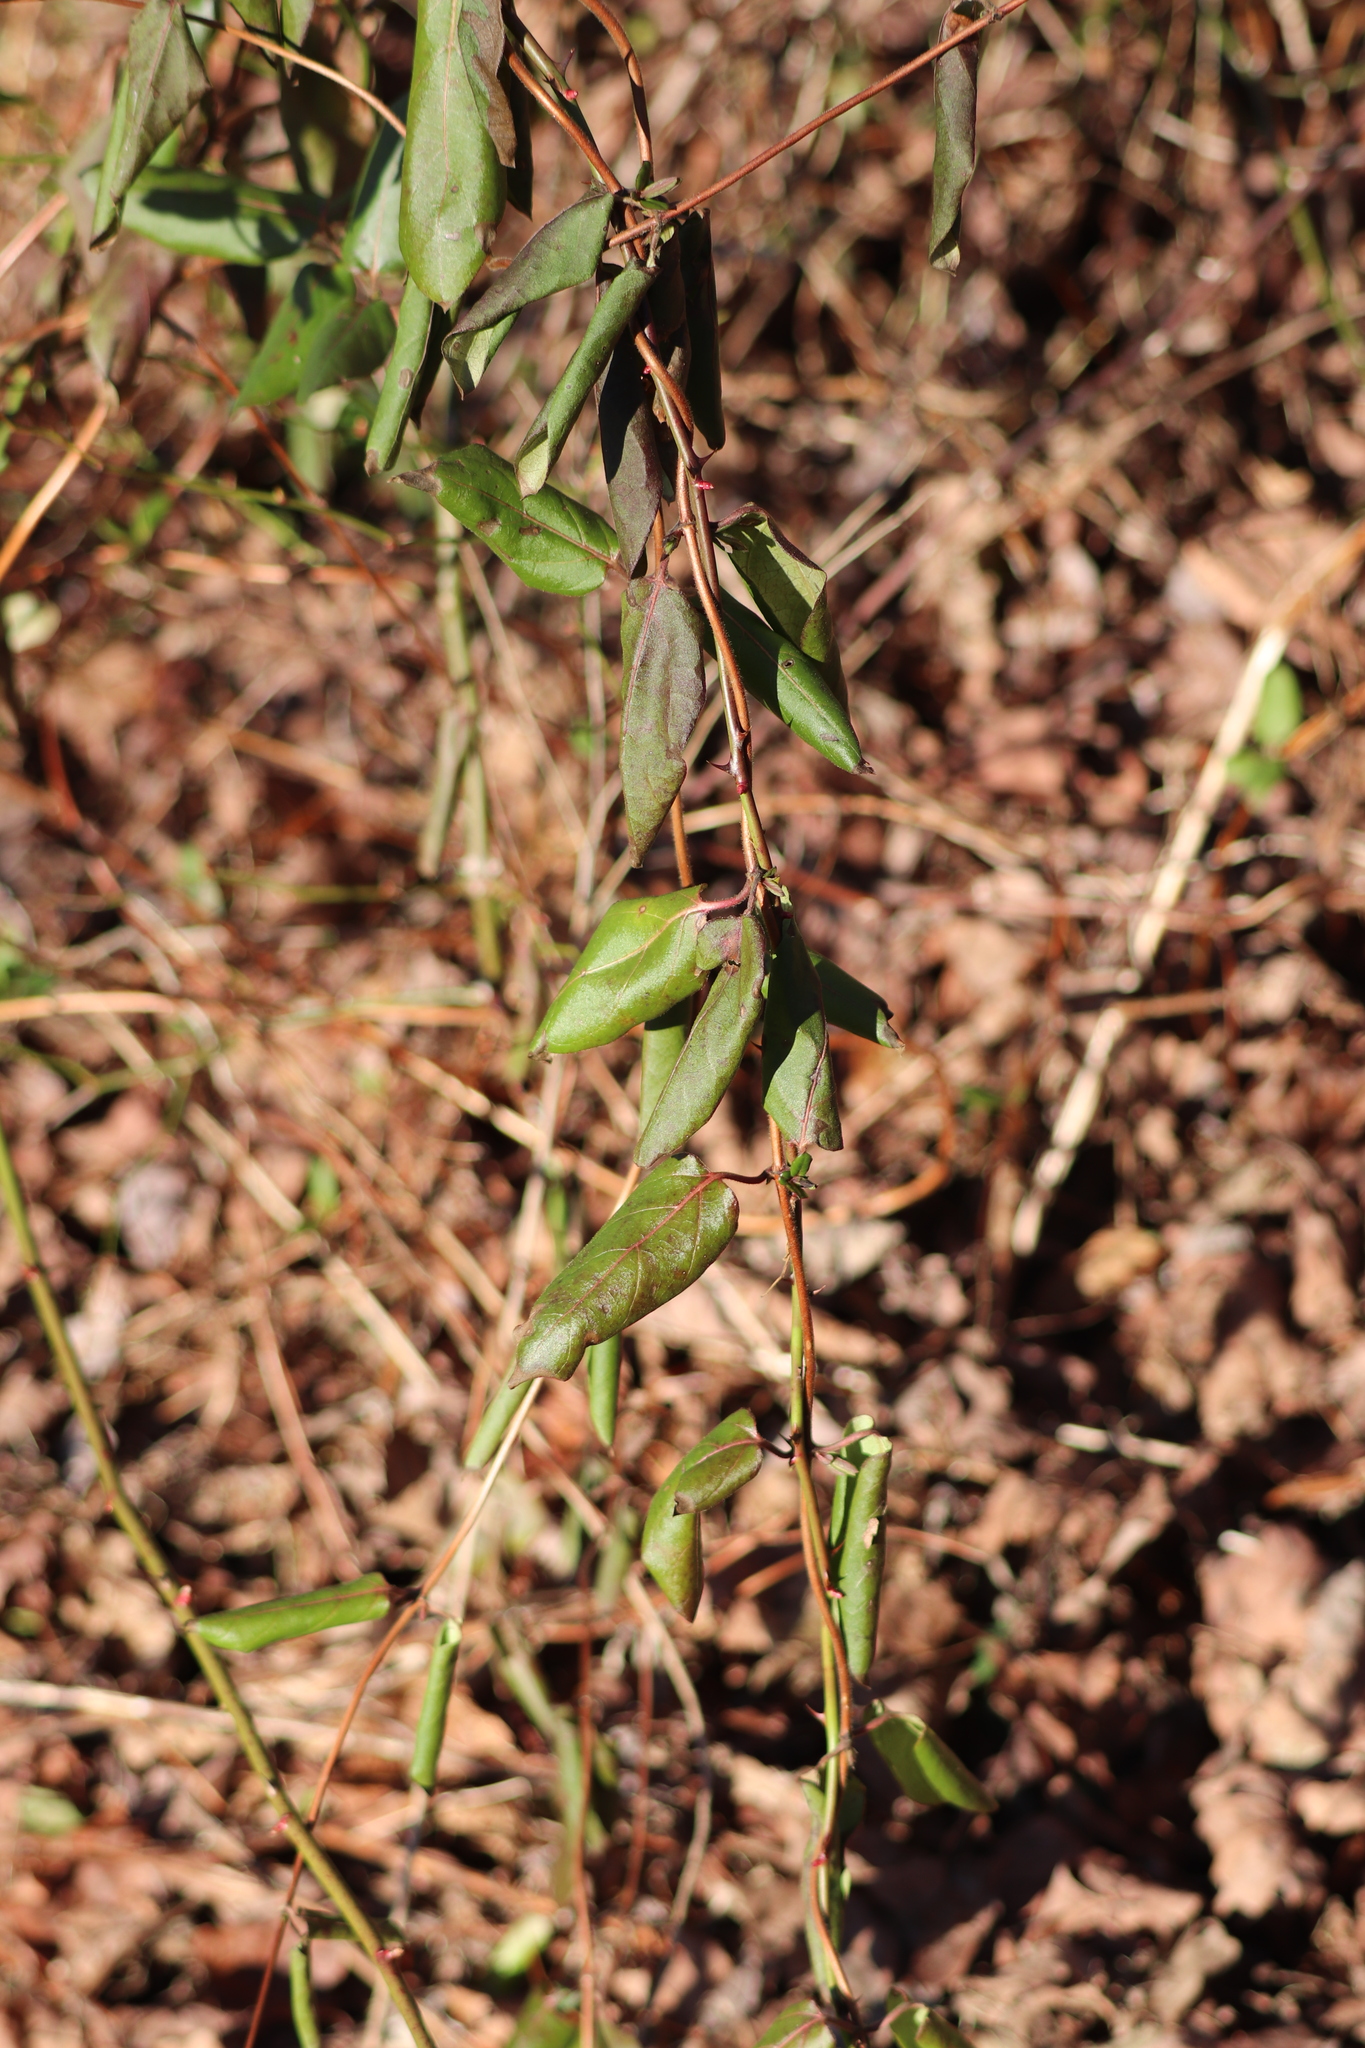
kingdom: Plantae
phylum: Tracheophyta
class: Magnoliopsida
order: Dipsacales
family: Caprifoliaceae
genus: Lonicera
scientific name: Lonicera japonica
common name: Japanese honeysuckle
